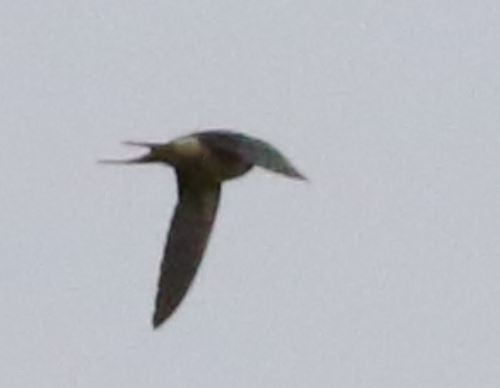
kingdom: Animalia
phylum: Chordata
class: Aves
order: Passeriformes
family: Hirundinidae
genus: Hirundo
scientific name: Hirundo rustica
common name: Barn swallow
